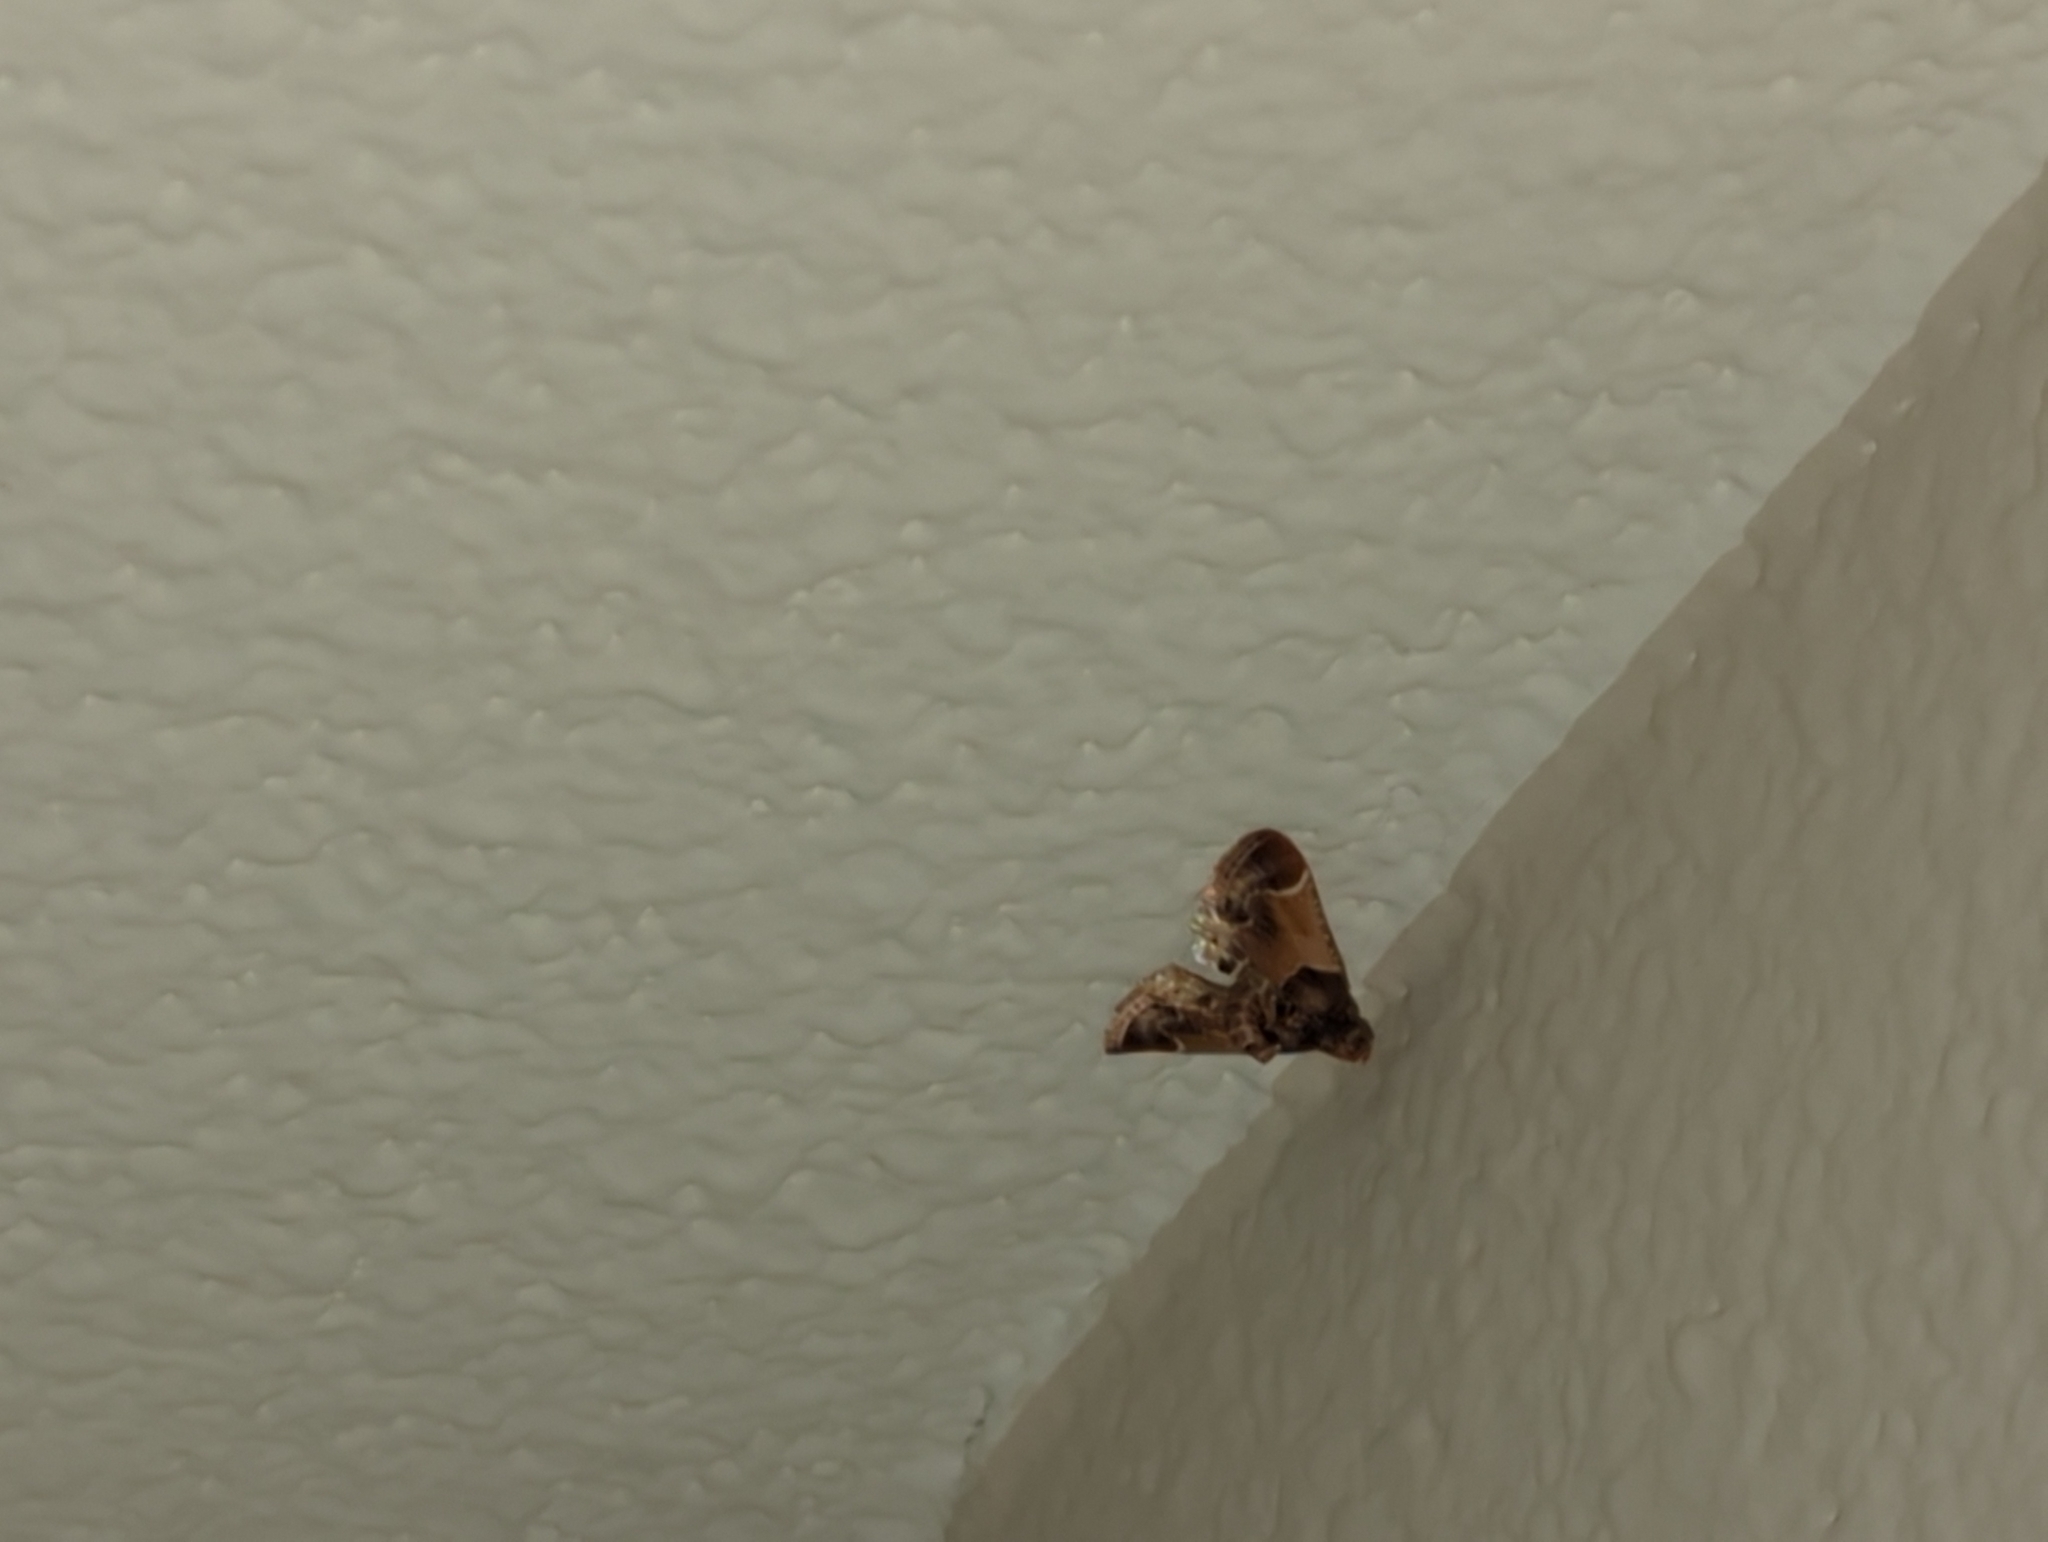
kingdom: Animalia
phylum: Arthropoda
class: Insecta
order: Lepidoptera
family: Pyralidae
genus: Pyralis
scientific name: Pyralis farinalis
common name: Meal moth
